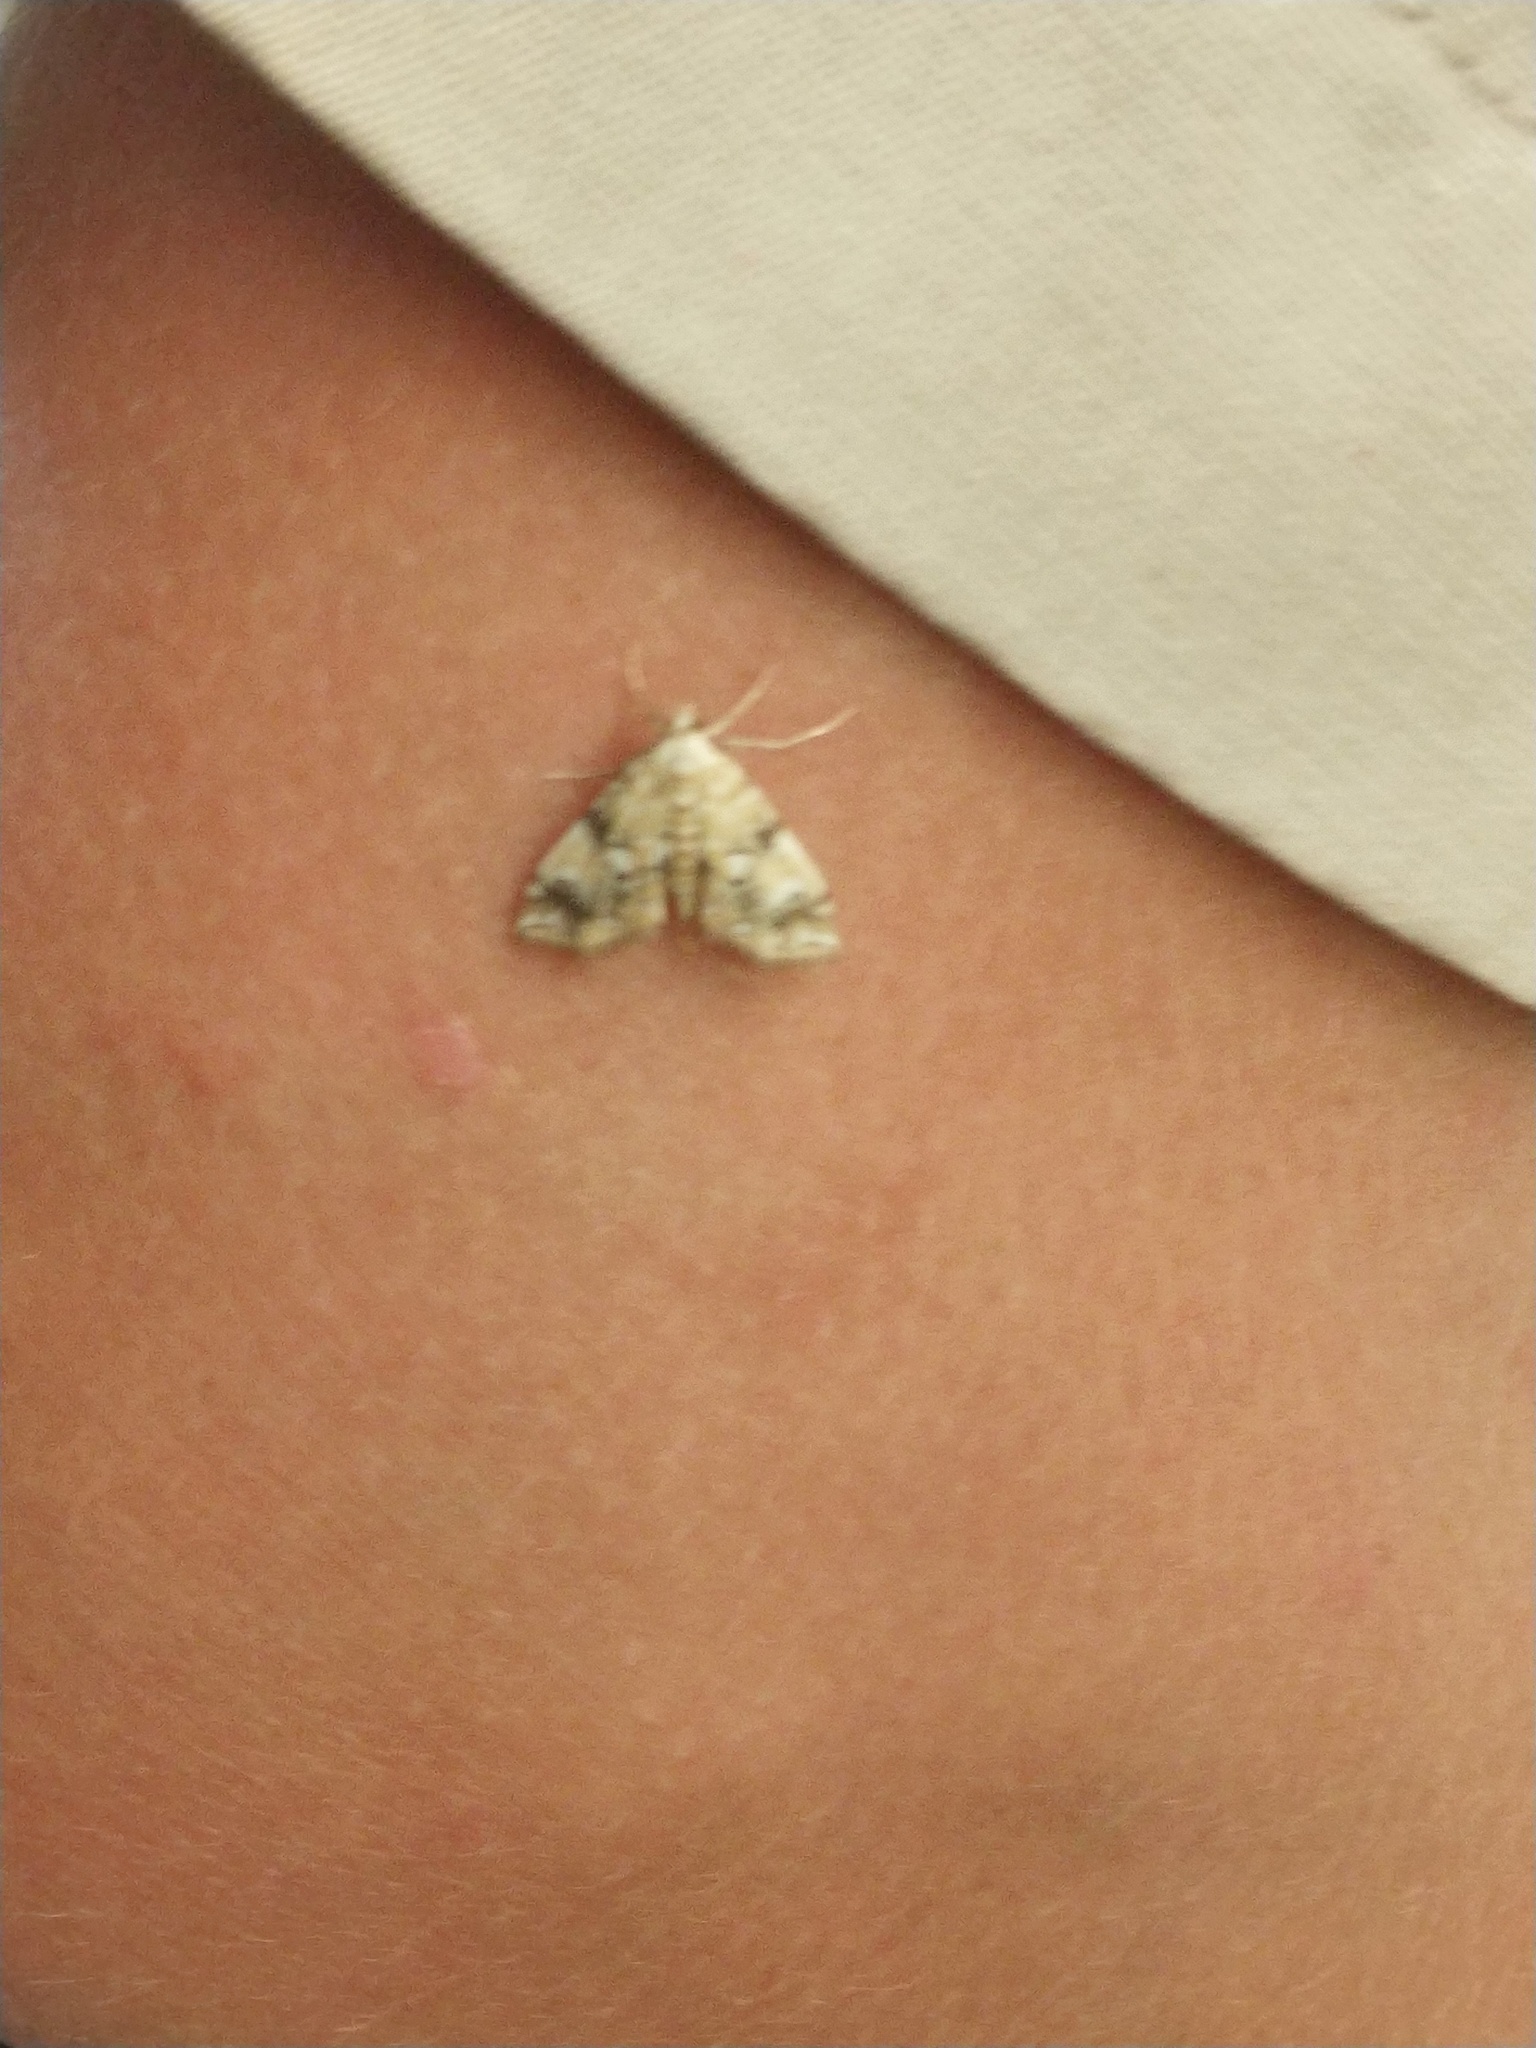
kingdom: Animalia
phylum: Arthropoda
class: Insecta
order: Lepidoptera
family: Crambidae
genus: Elophila
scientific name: Elophila icciusalis
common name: Pondside pyralid moth
